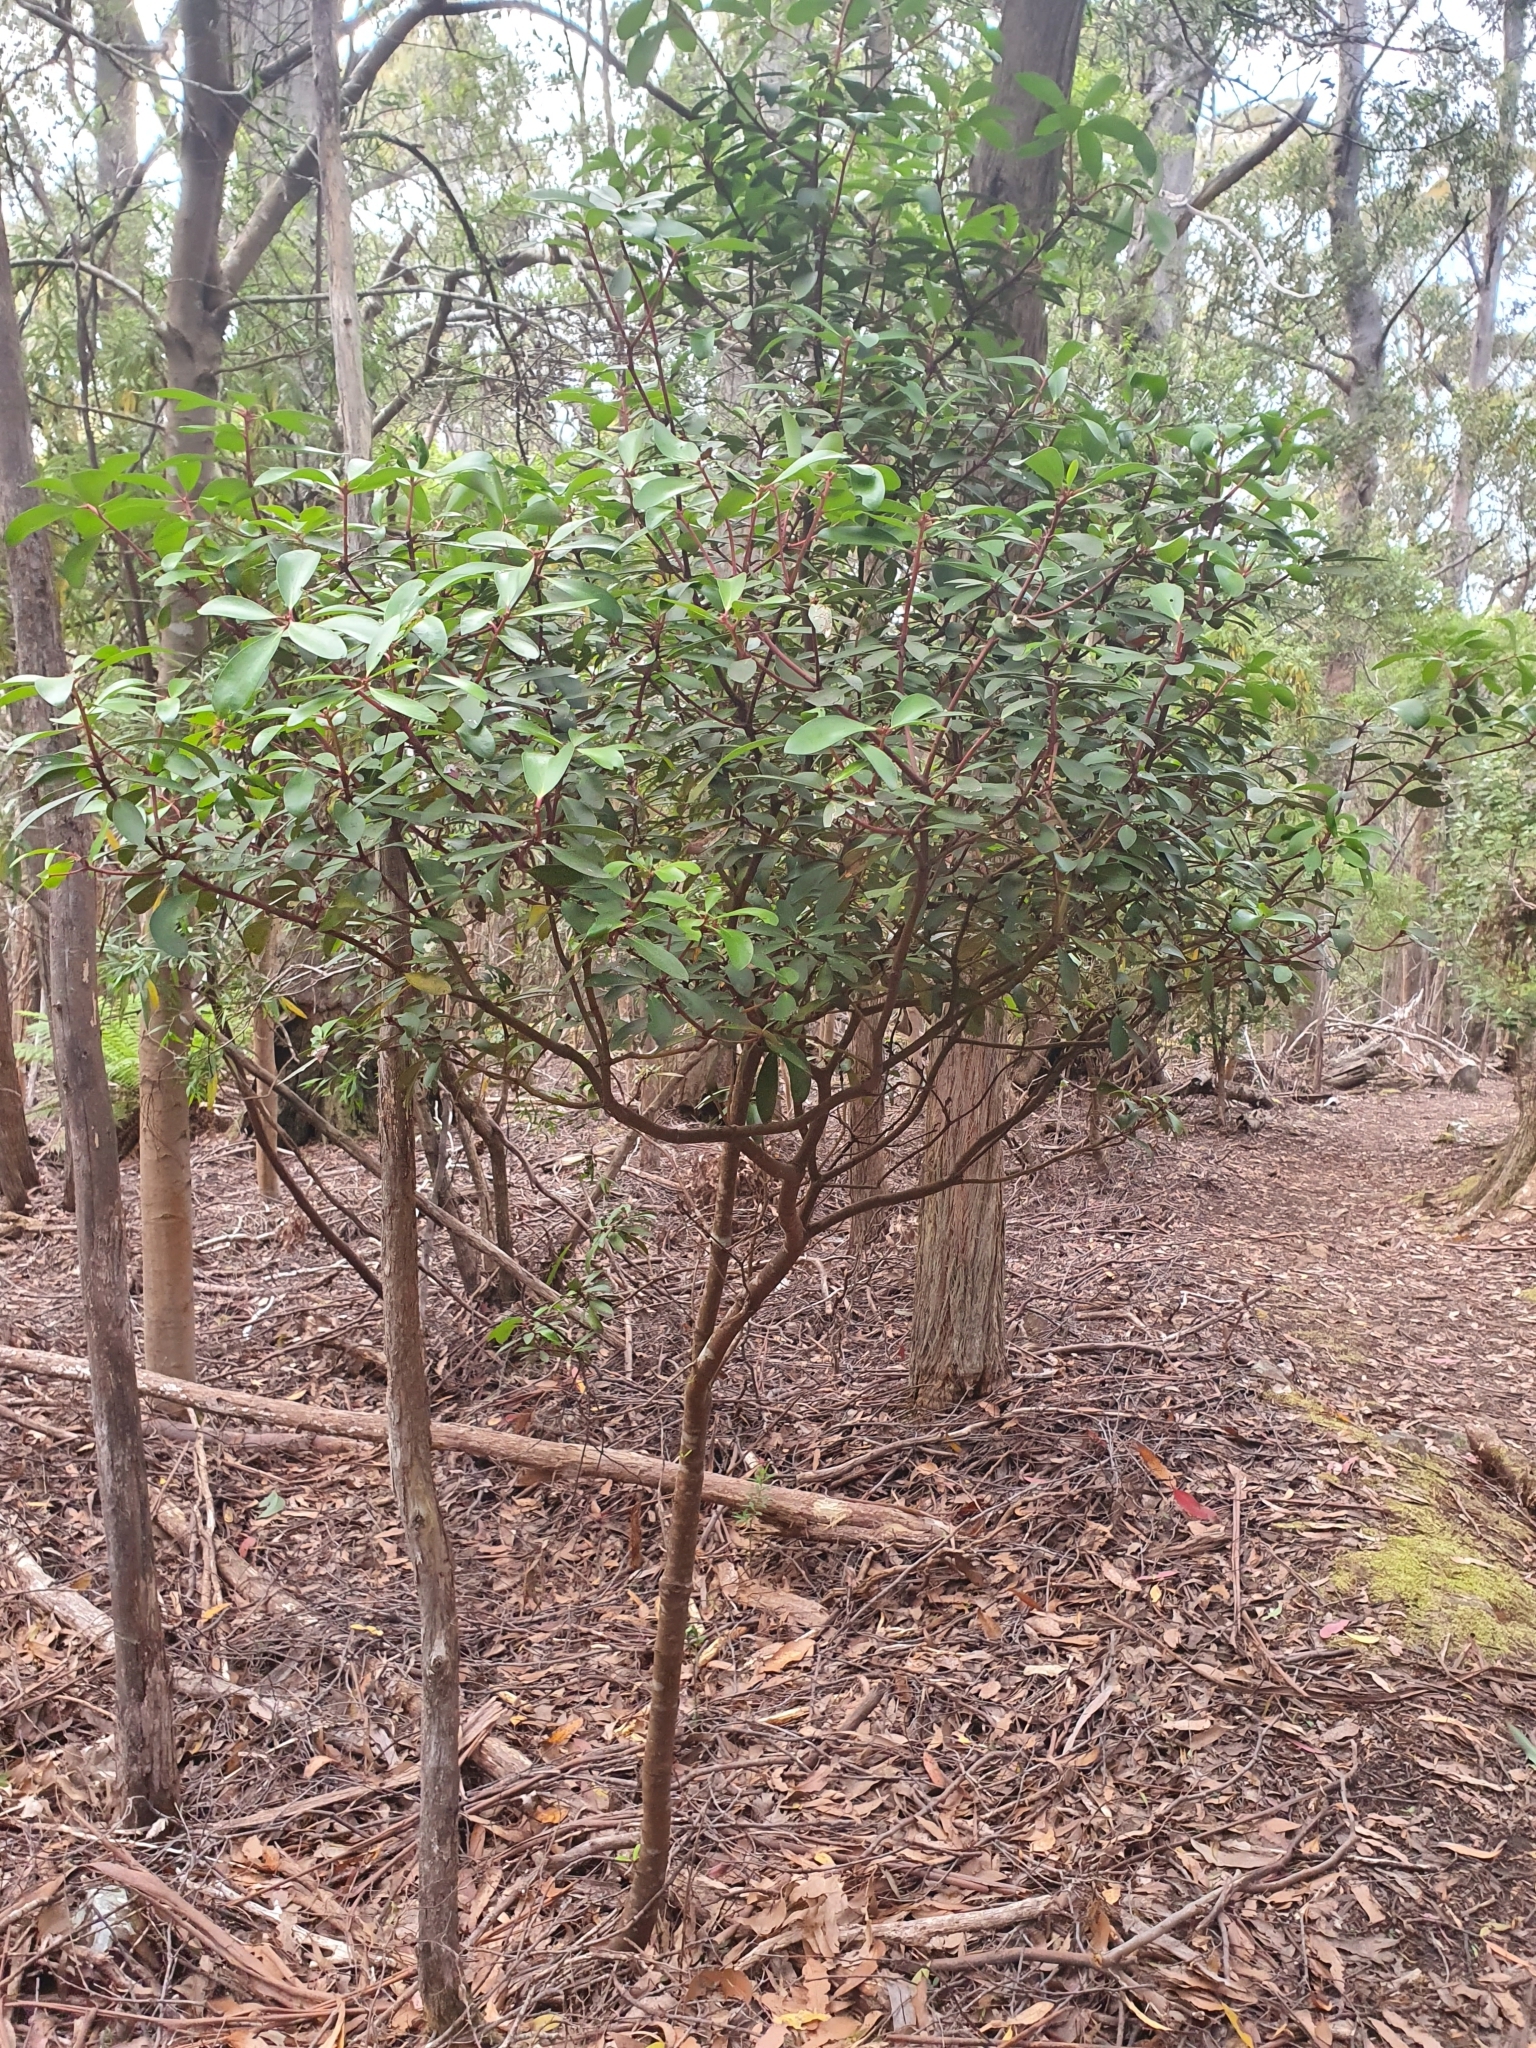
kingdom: Plantae
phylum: Tracheophyta
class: Magnoliopsida
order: Canellales
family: Winteraceae
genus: Drimys
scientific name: Drimys aromatica
